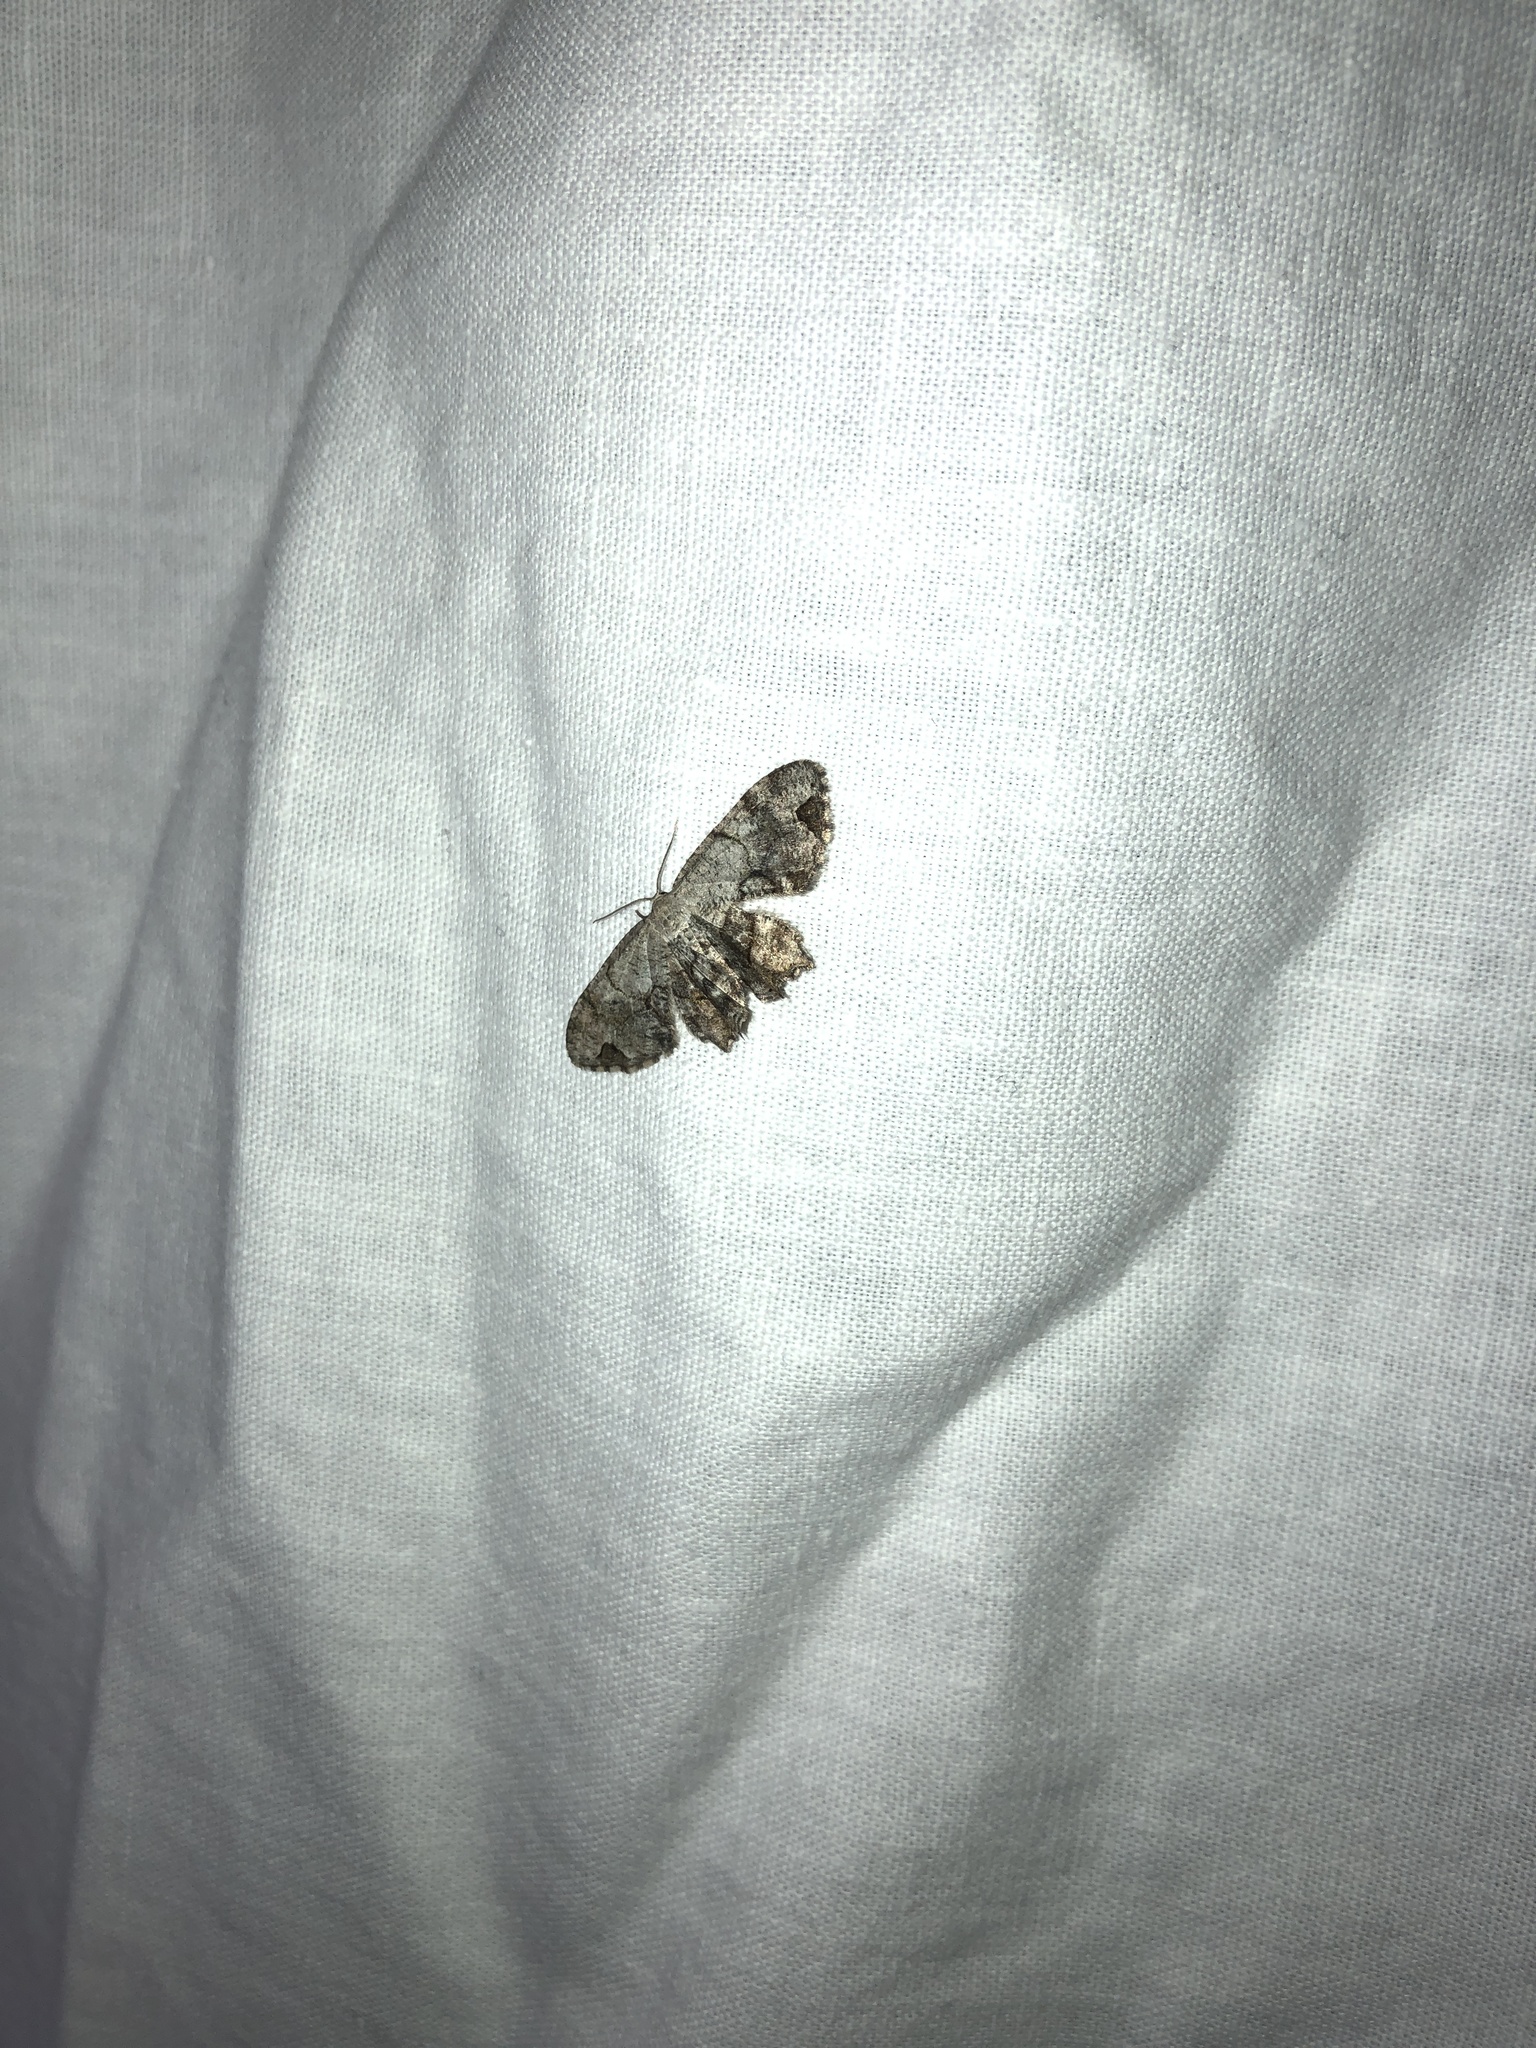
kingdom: Animalia
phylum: Arthropoda
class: Insecta
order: Lepidoptera
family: Uraniidae
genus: Epiplema
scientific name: Epiplema Callizzia amorata
